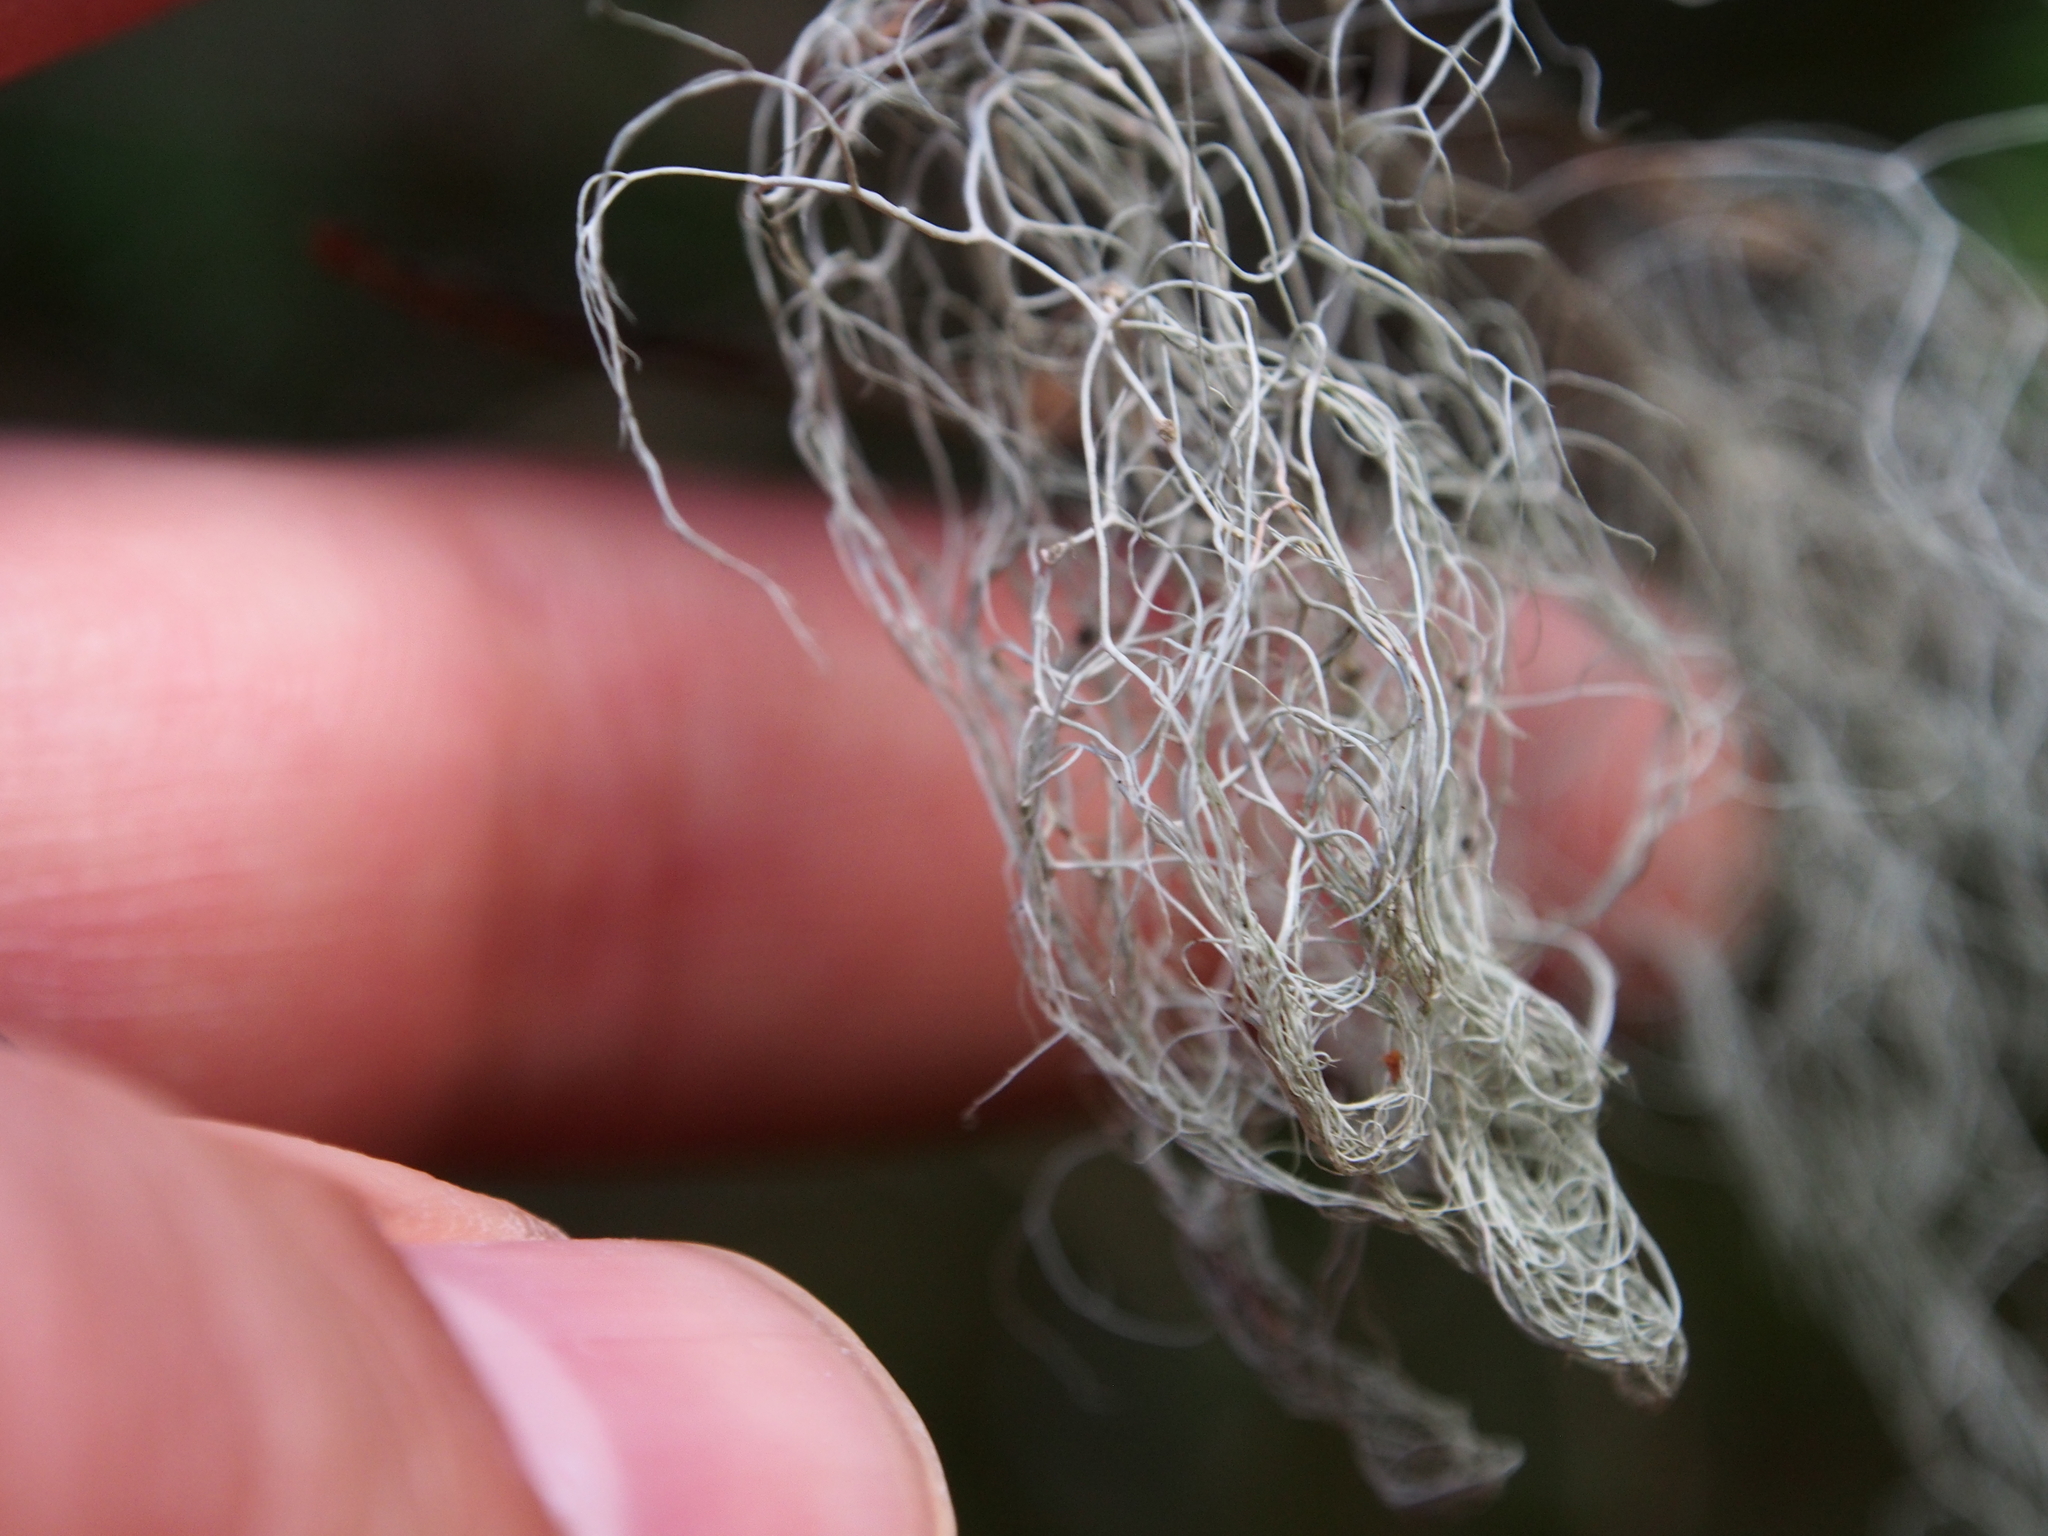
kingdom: Fungi
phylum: Ascomycota
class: Lecanoromycetes
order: Lecanorales
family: Parmeliaceae
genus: Bryoria
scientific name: Bryoria fuscescens
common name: Pale-footed horsehair lichen
